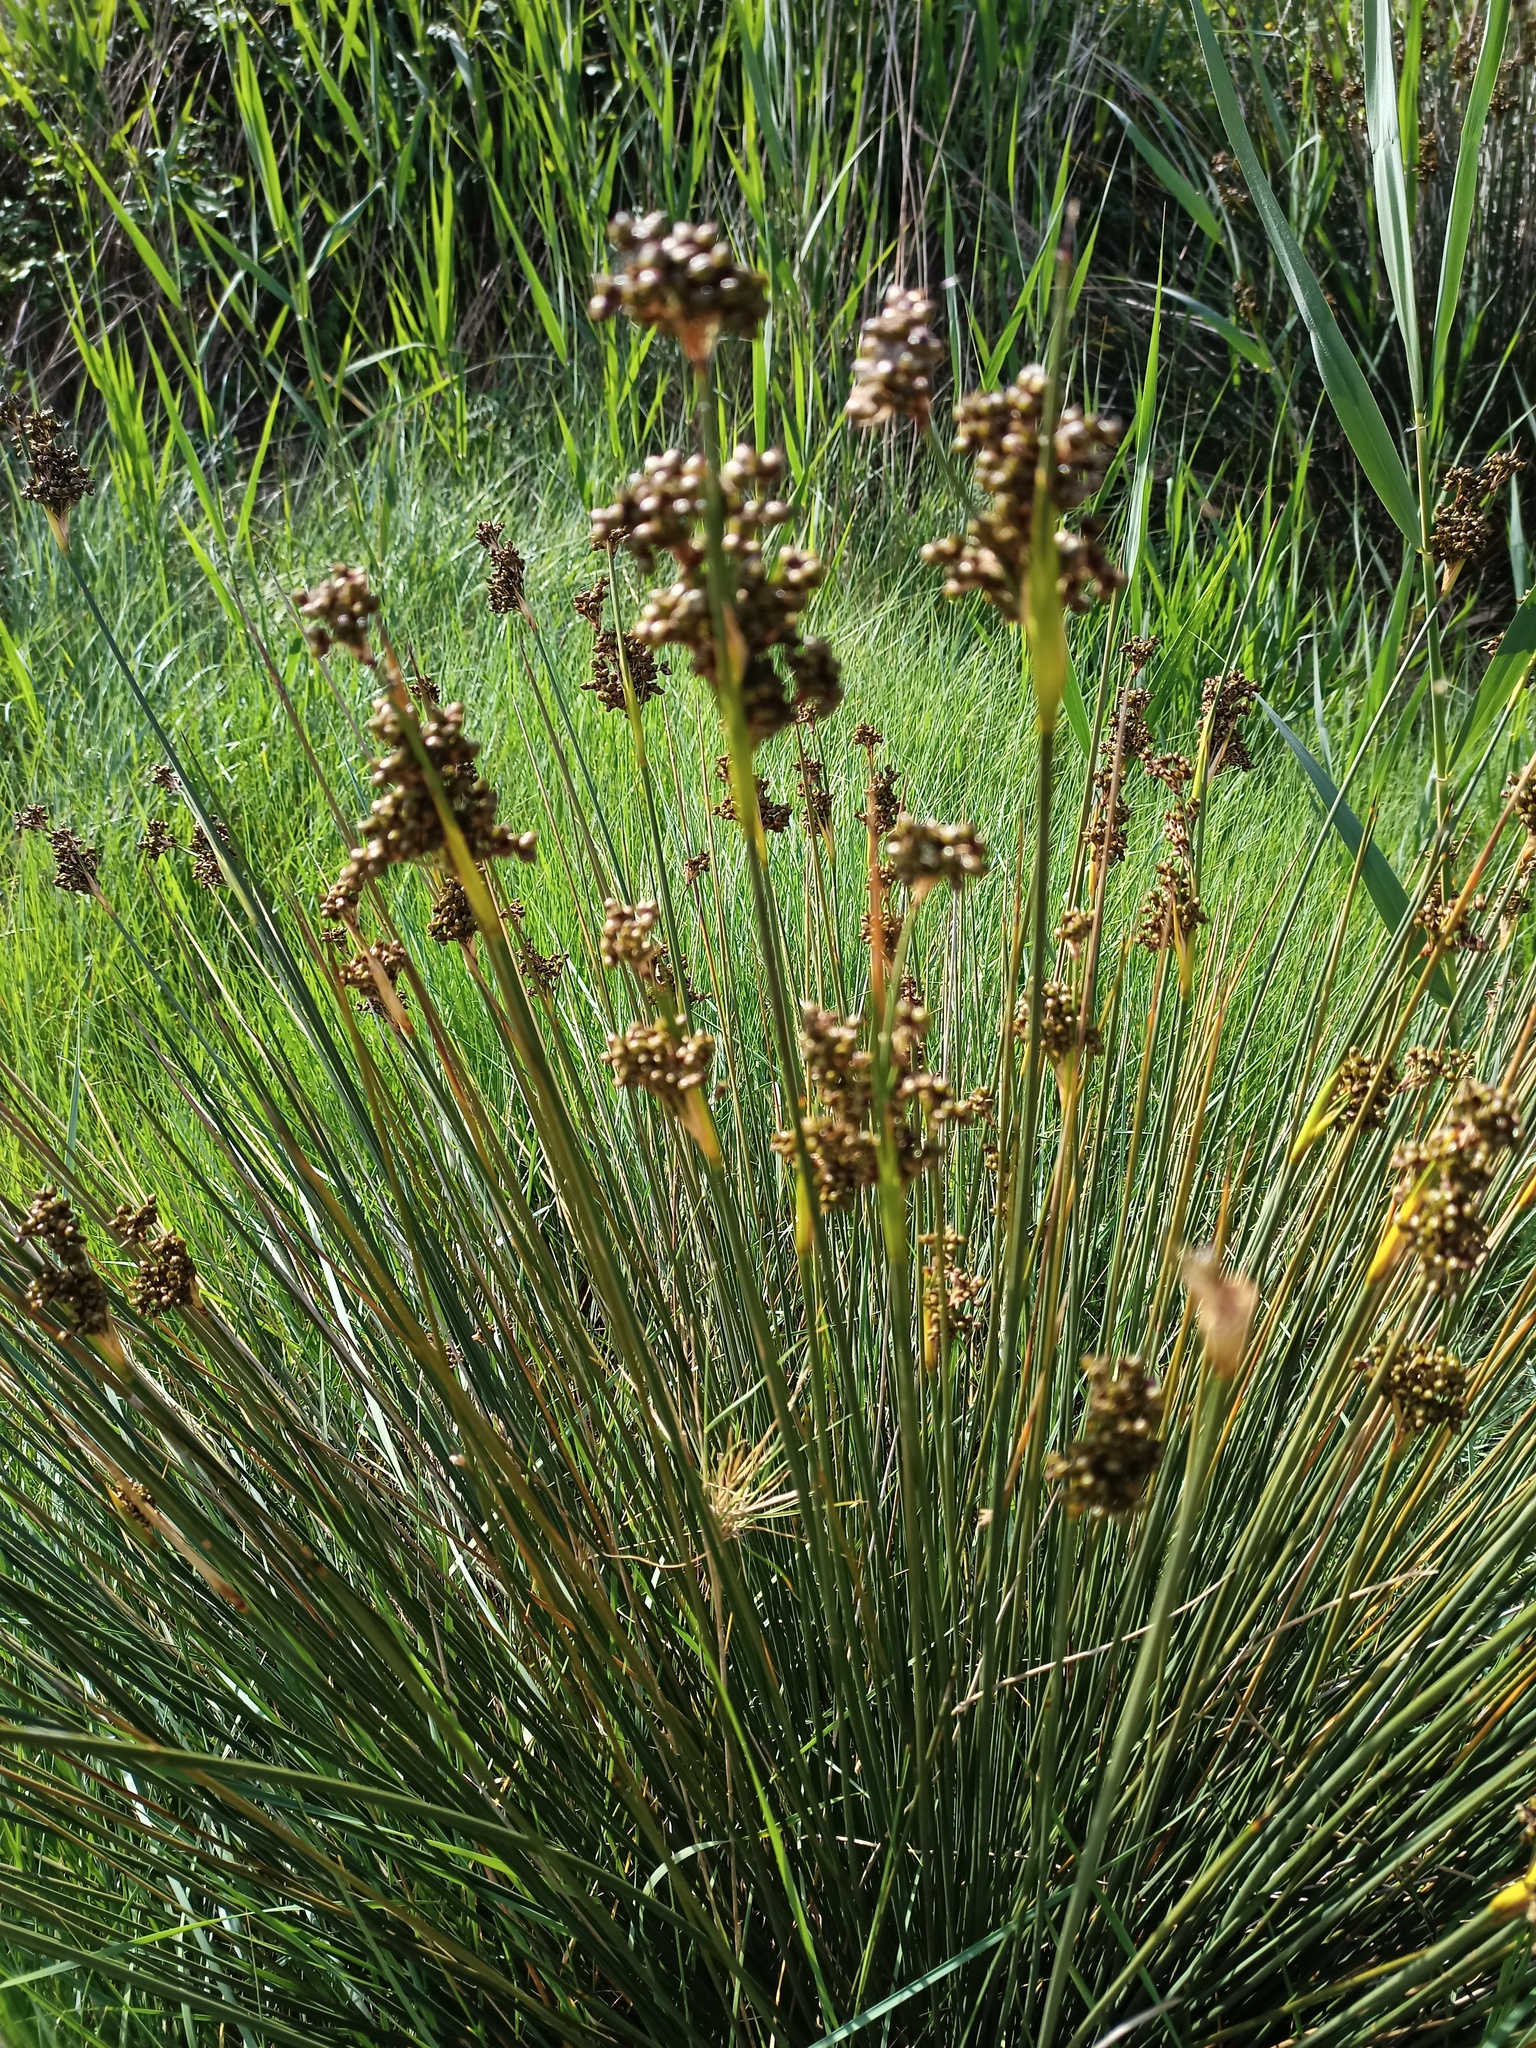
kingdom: Plantae
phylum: Tracheophyta
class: Liliopsida
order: Poales
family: Juncaceae
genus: Juncus
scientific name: Juncus acutus
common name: Sharp rush
